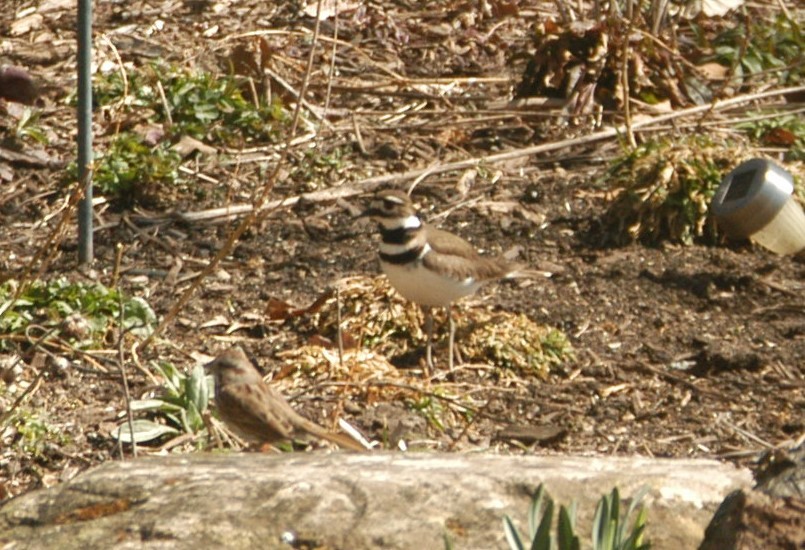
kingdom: Animalia
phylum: Chordata
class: Aves
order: Charadriiformes
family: Charadriidae
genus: Charadrius
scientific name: Charadrius vociferus
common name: Killdeer
